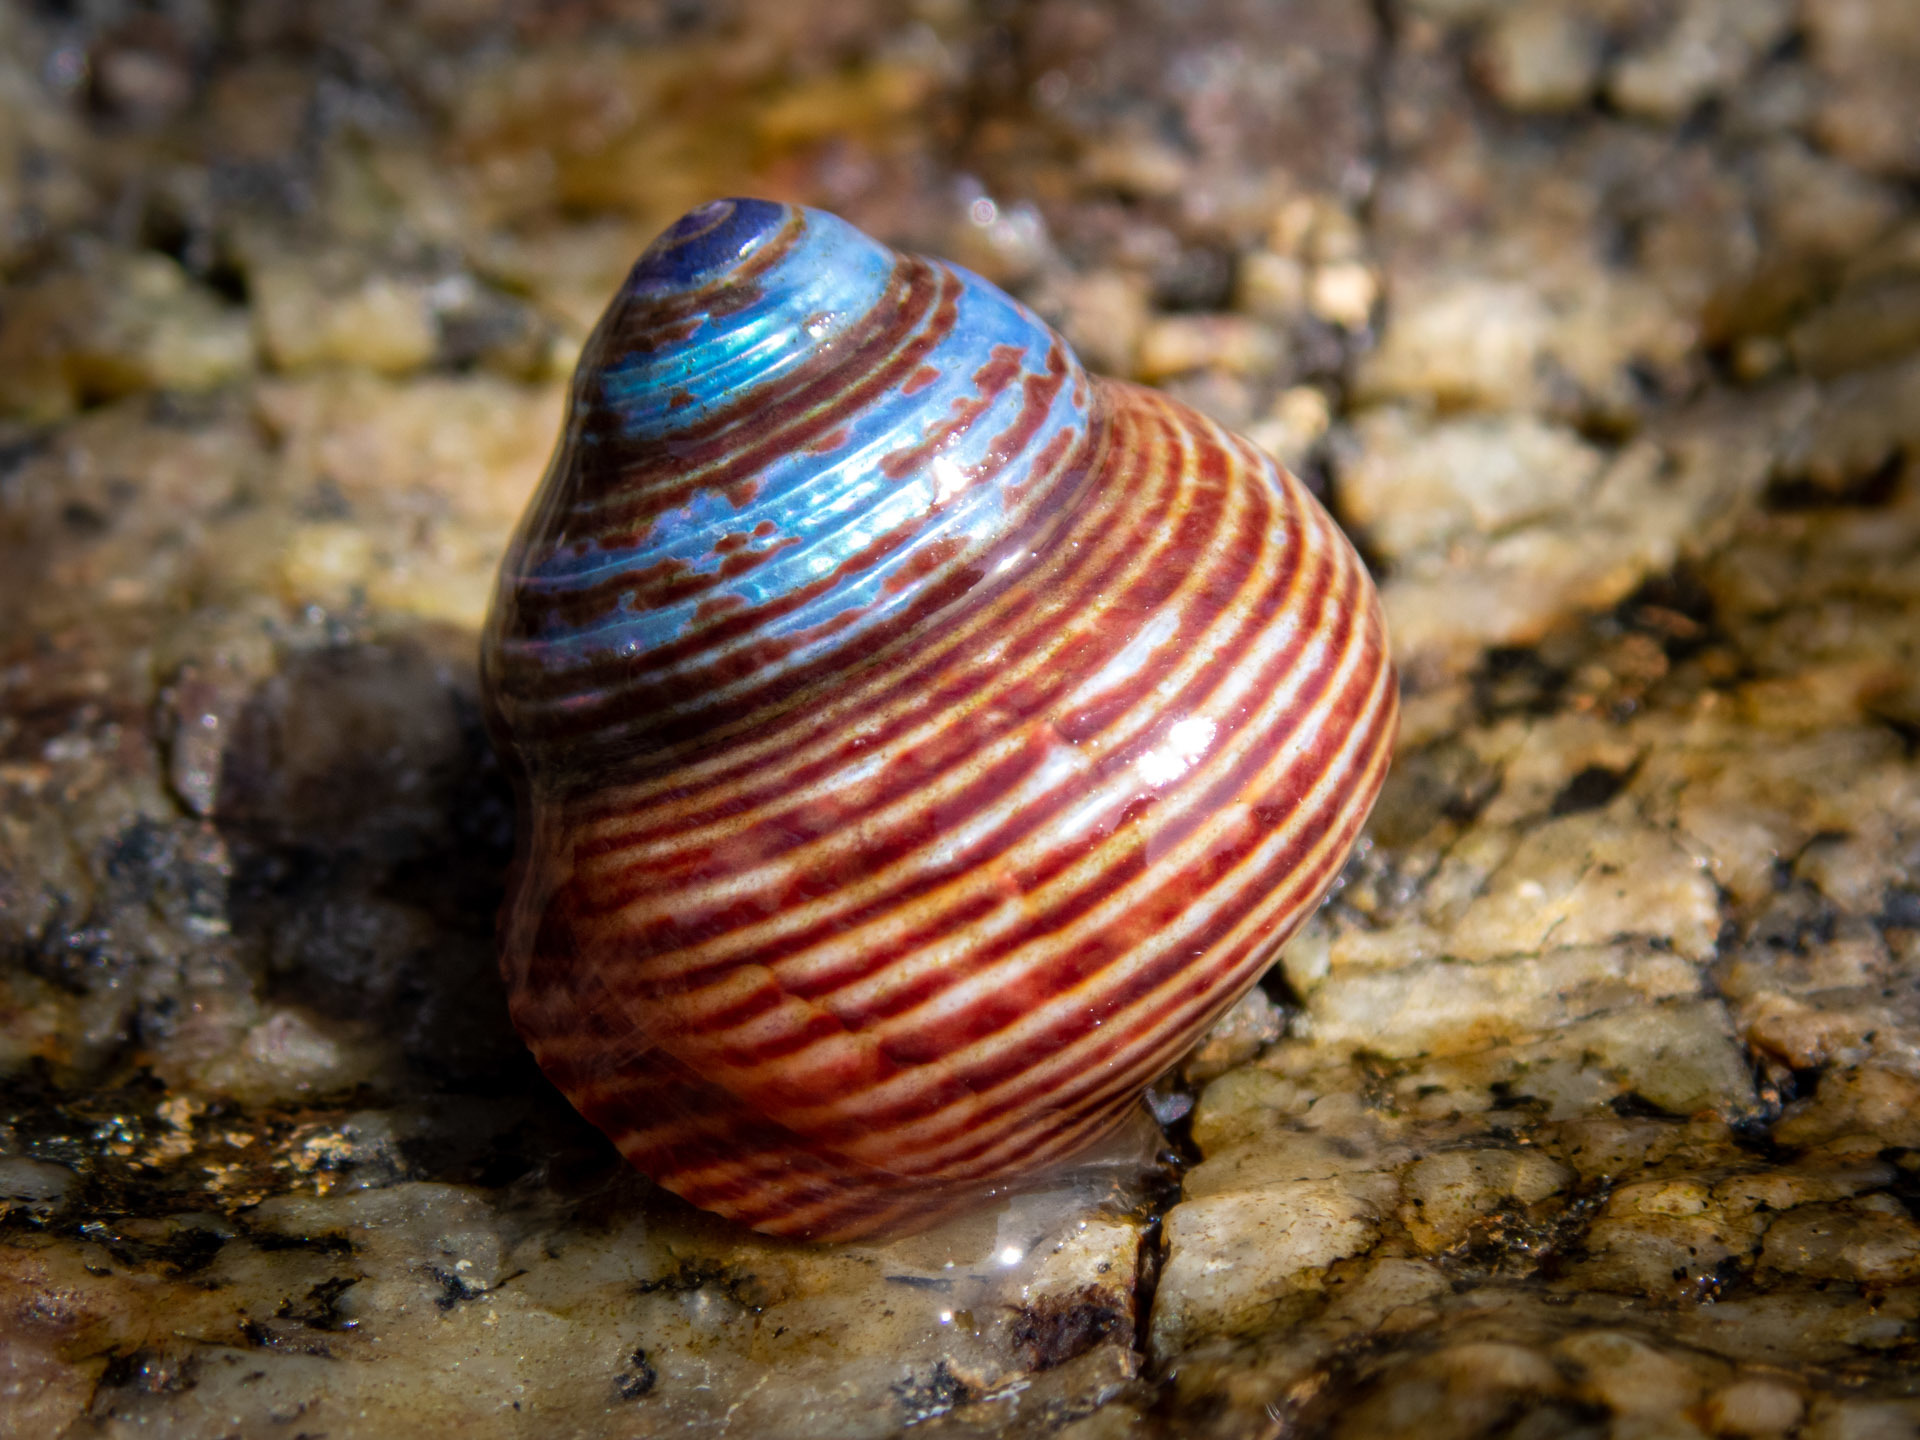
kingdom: Animalia
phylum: Arthropoda
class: Malacostraca
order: Decapoda
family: Paguridae
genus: Pagurus
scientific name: Pagurus samuelis
